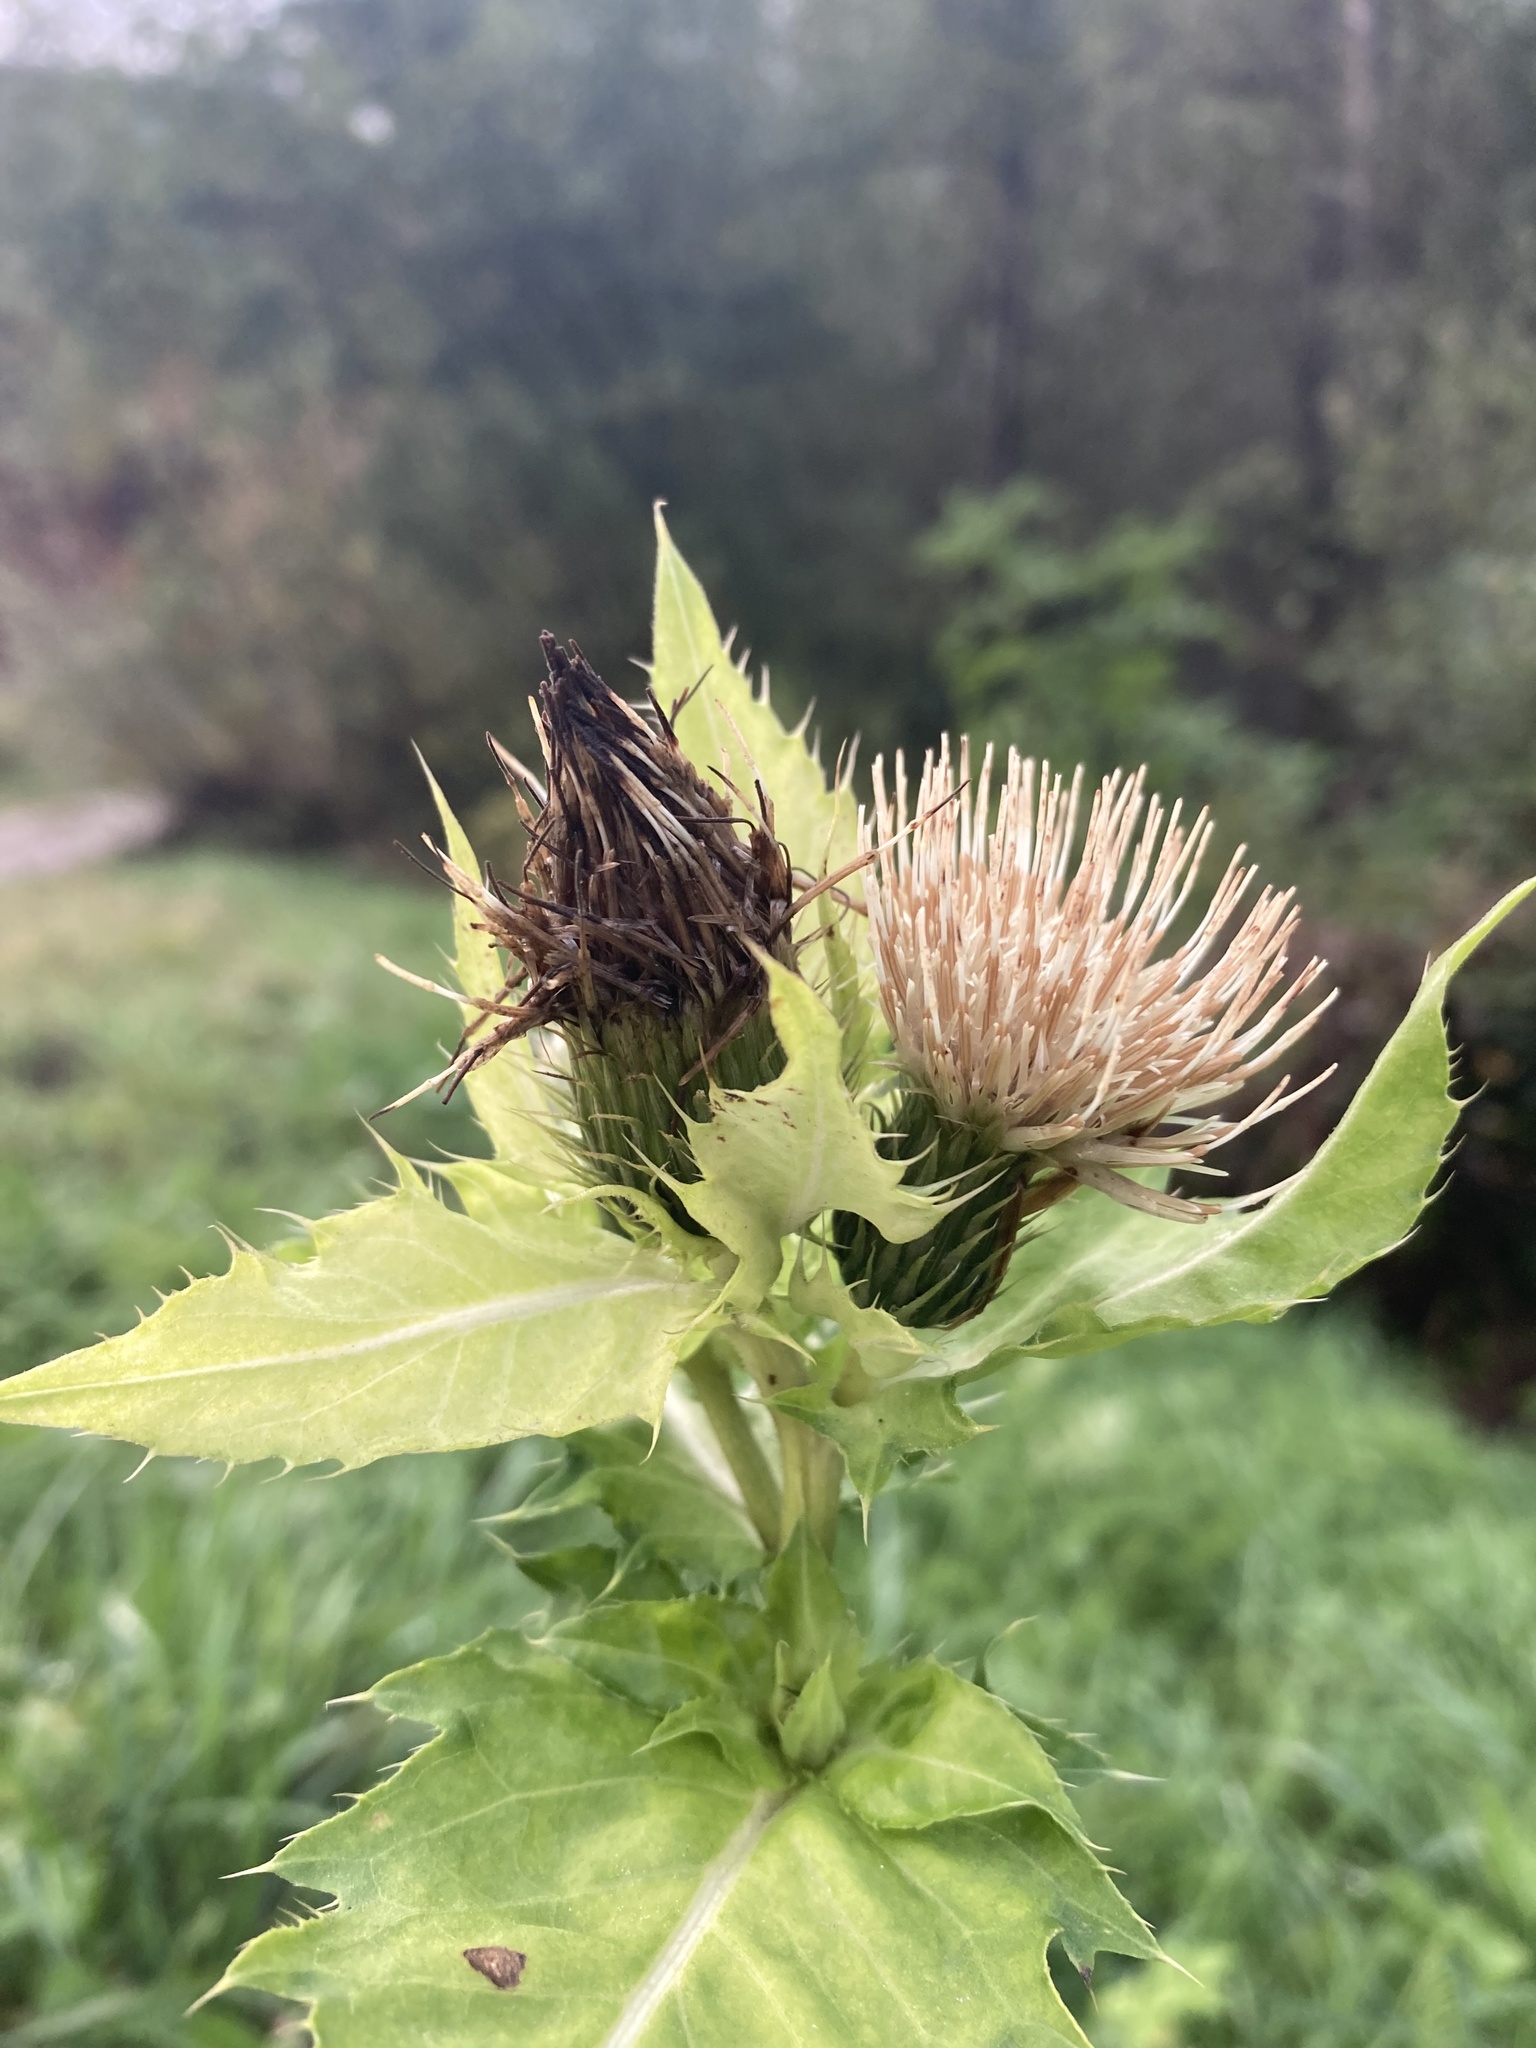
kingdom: Plantae
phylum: Tracheophyta
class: Magnoliopsida
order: Asterales
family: Asteraceae
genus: Cirsium
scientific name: Cirsium oleraceum
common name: Cabbage thistle
